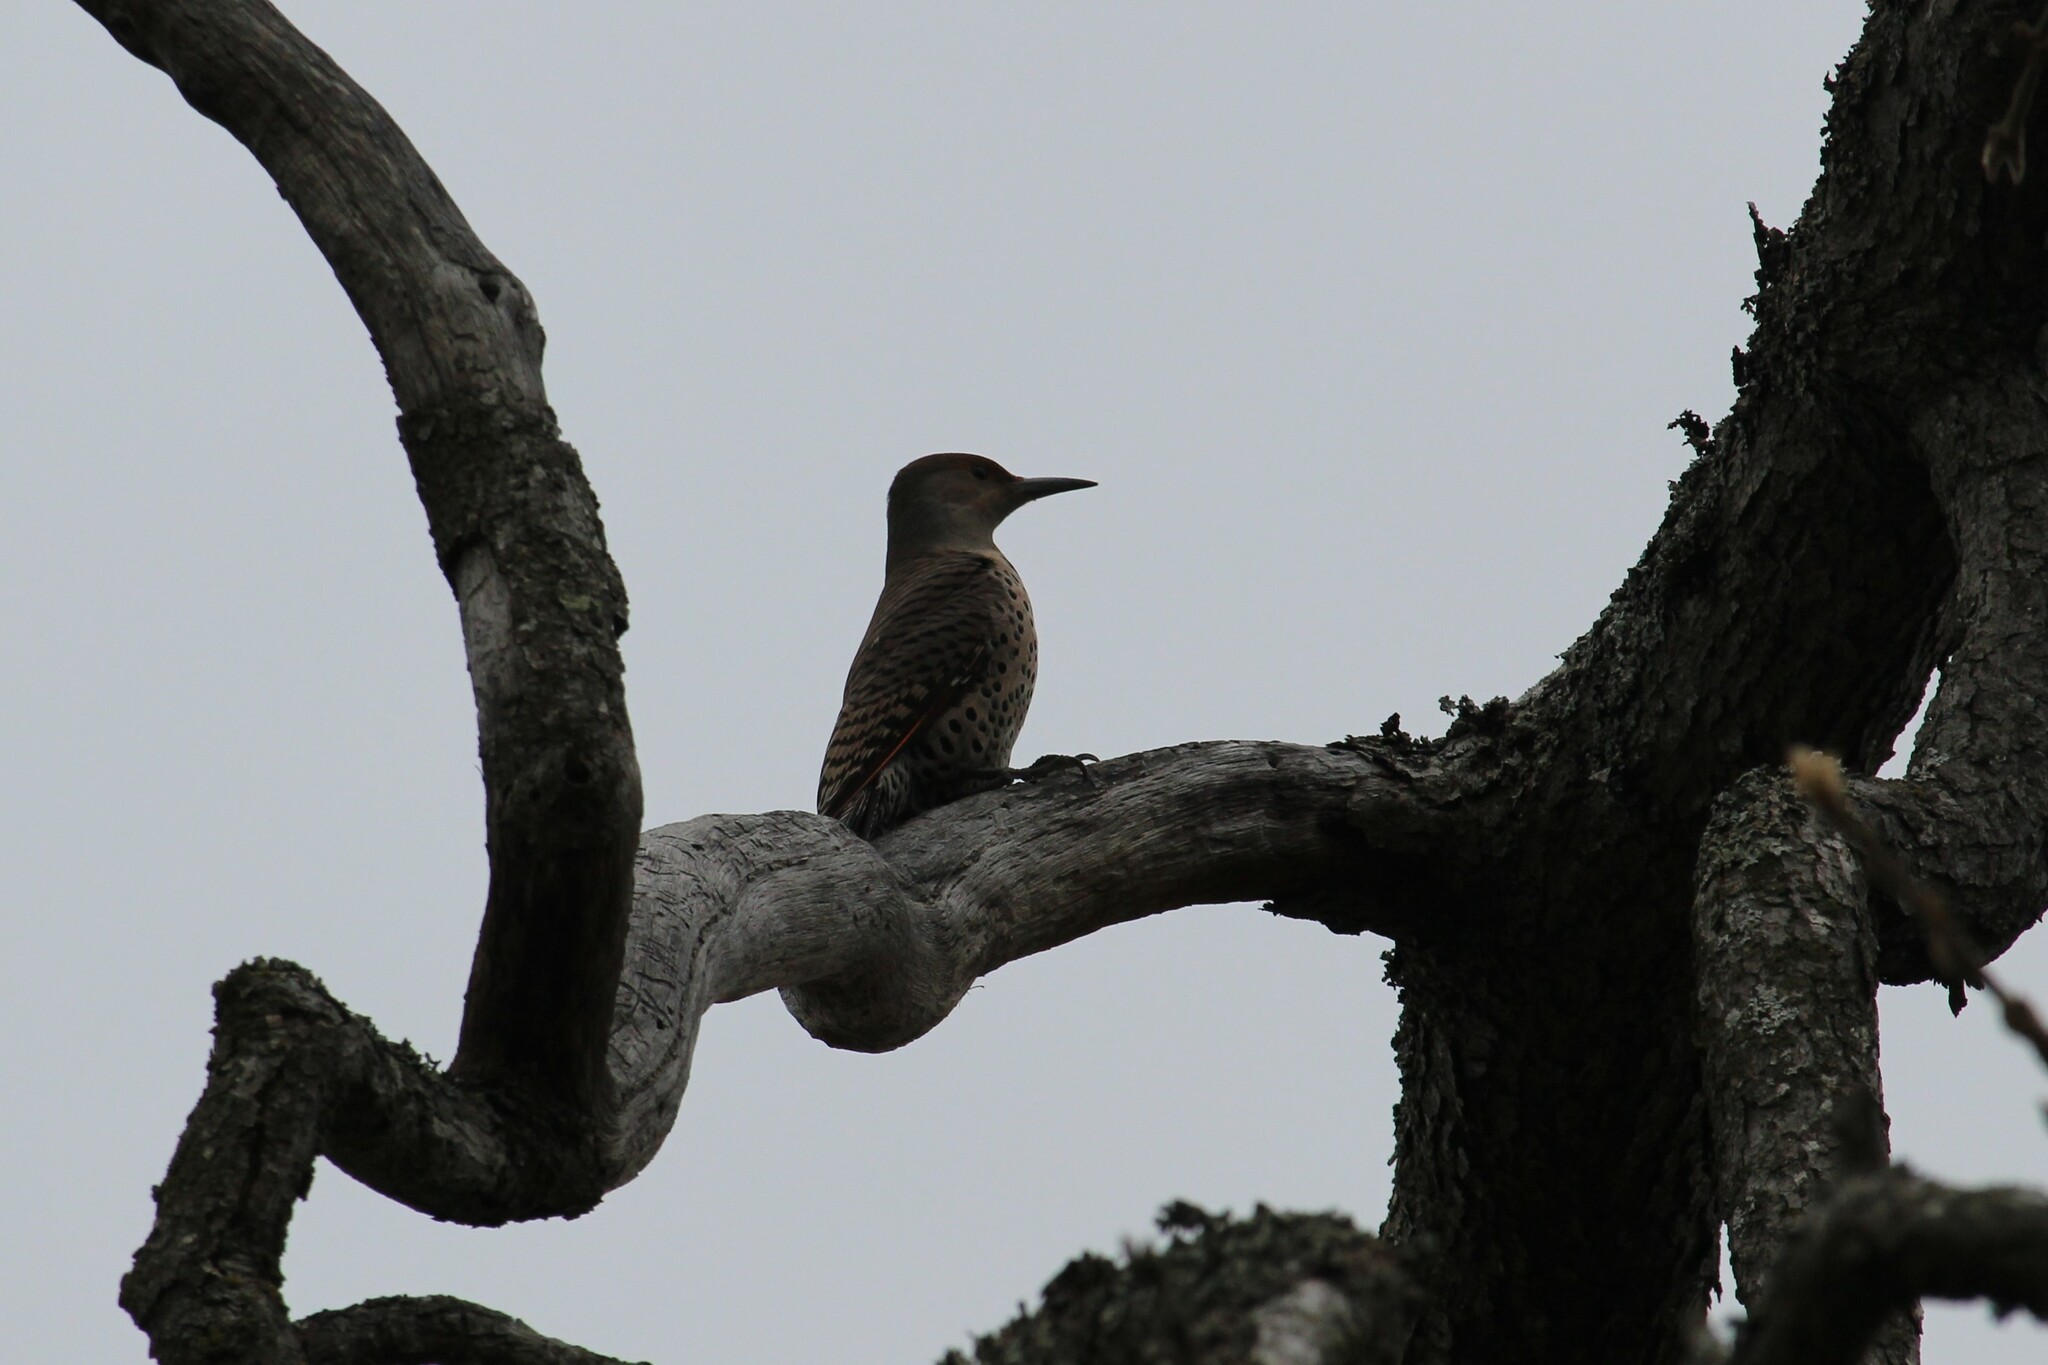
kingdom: Animalia
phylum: Chordata
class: Aves
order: Piciformes
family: Picidae
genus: Colaptes
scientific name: Colaptes auratus
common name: Northern flicker
